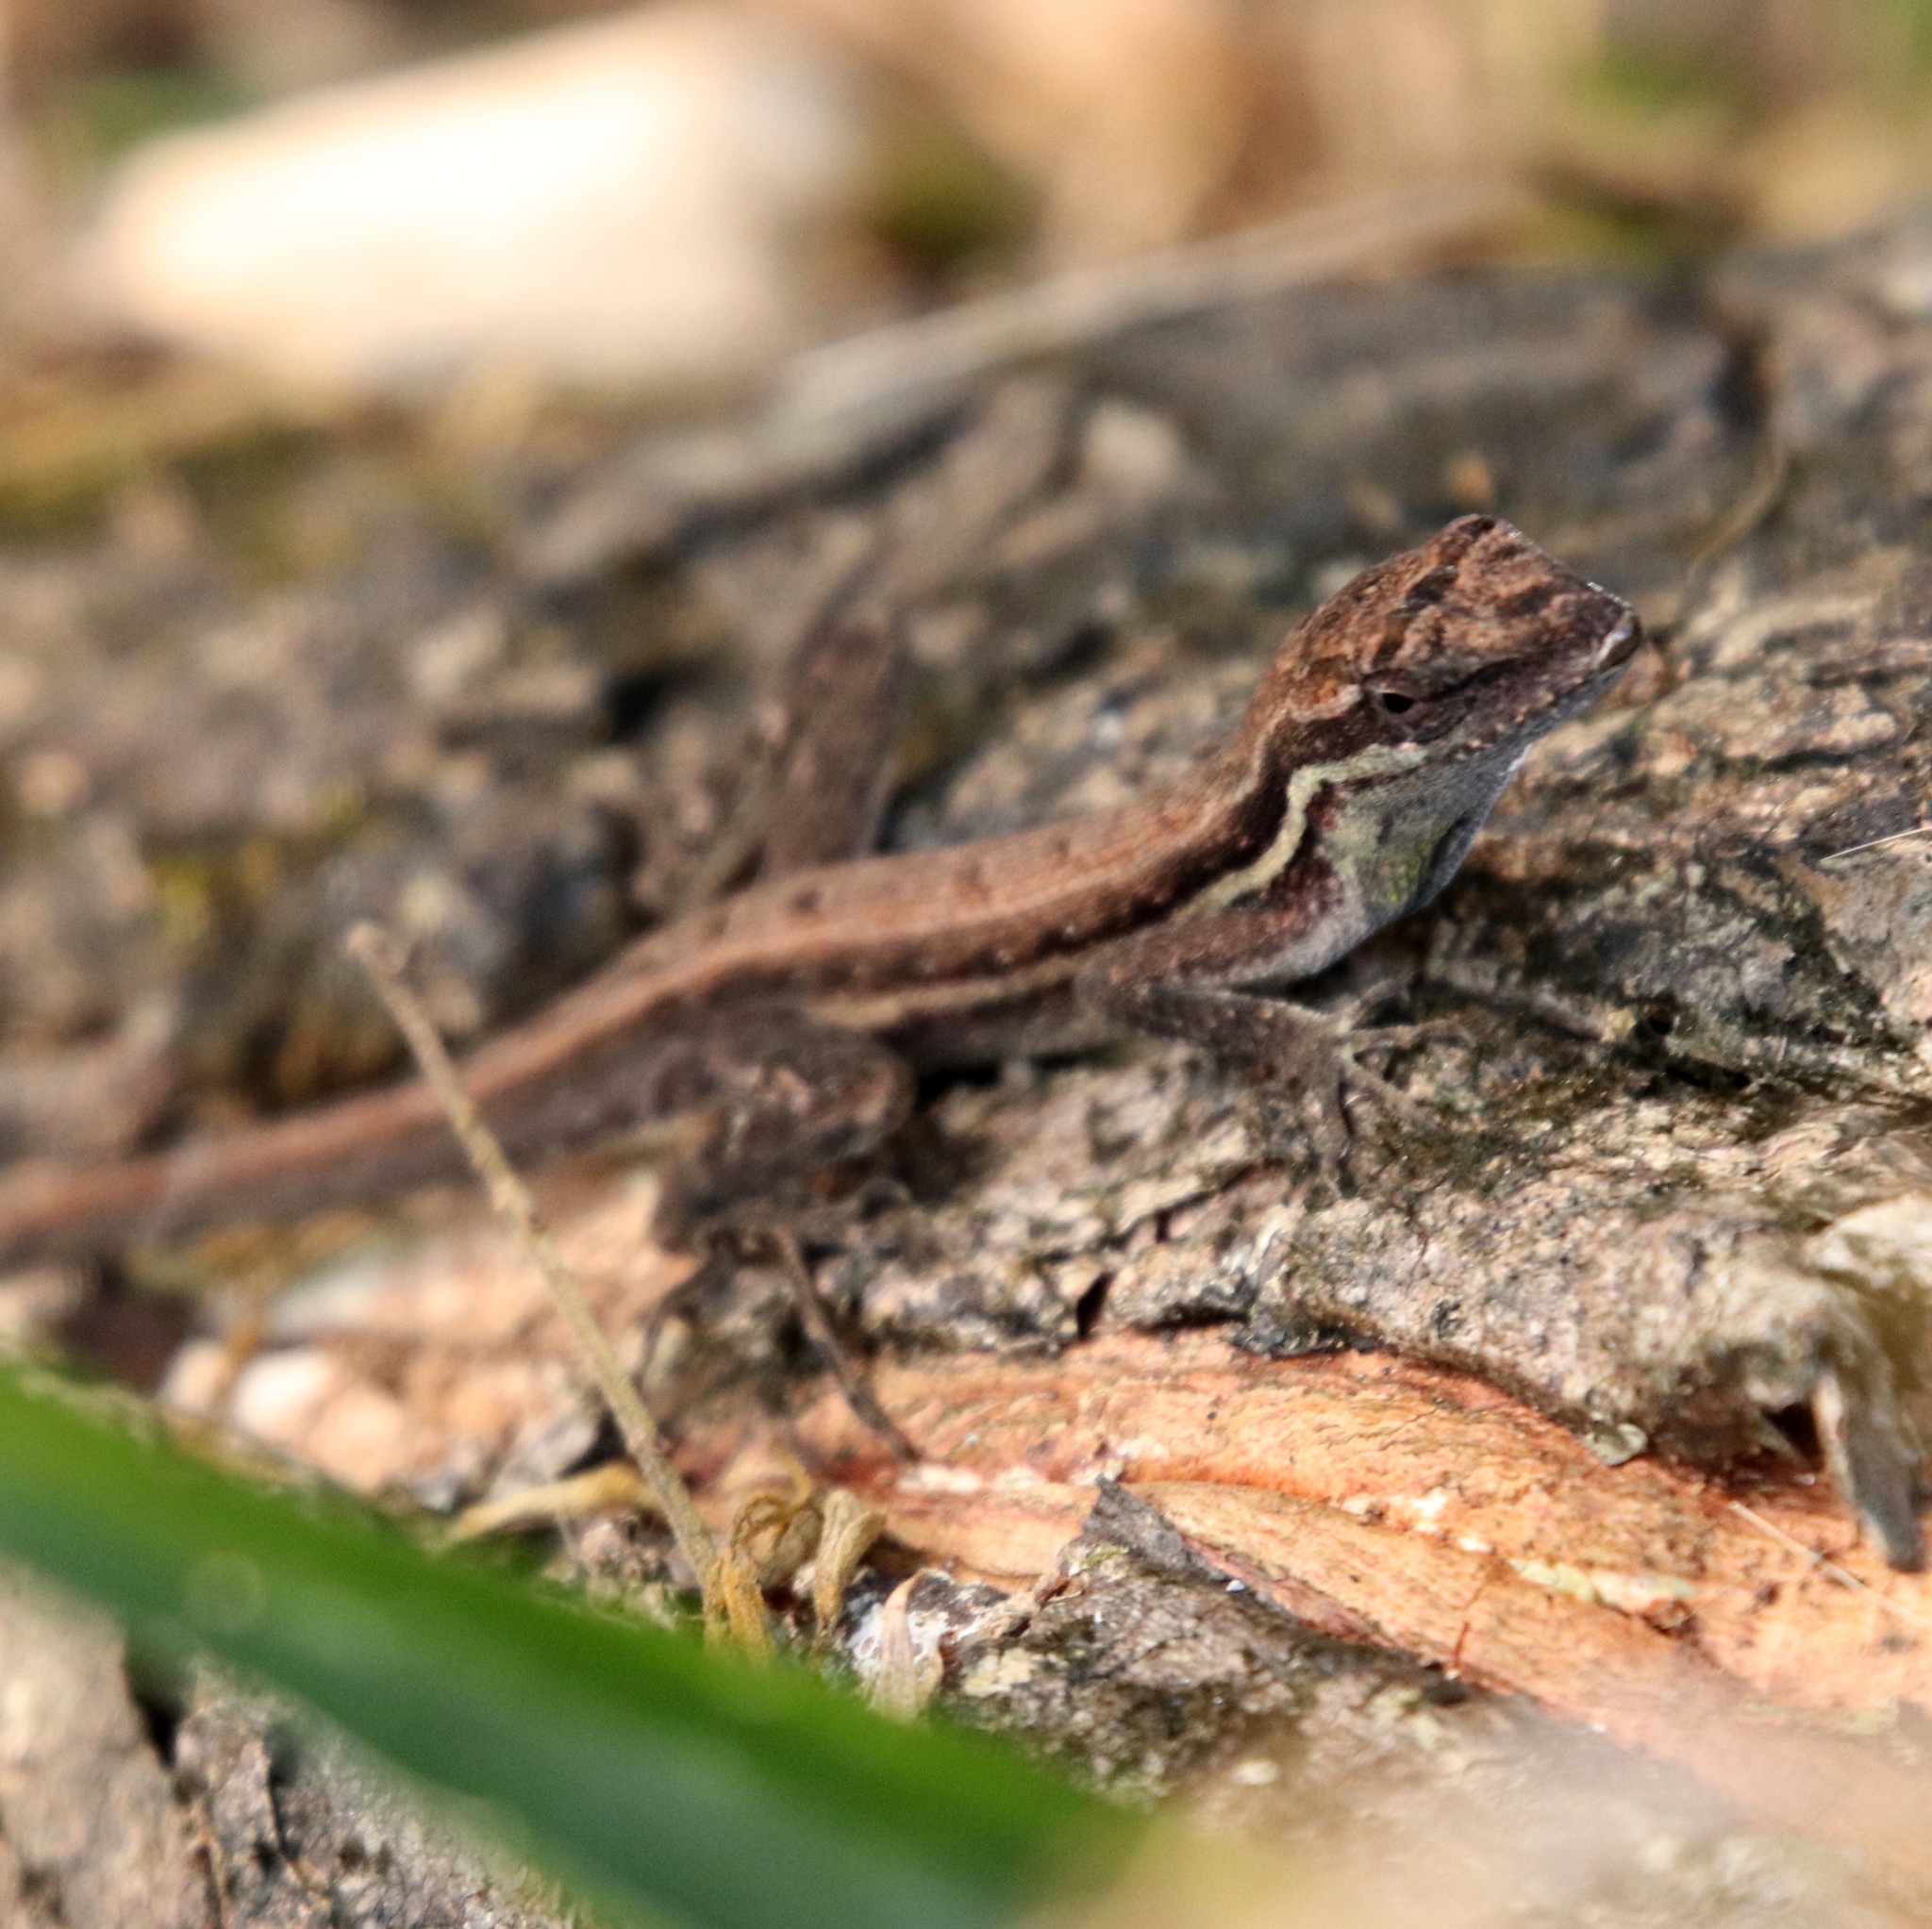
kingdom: Animalia
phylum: Chordata
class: Squamata
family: Dactyloidae
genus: Anolis
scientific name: Anolis auratus
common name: Grass anole
